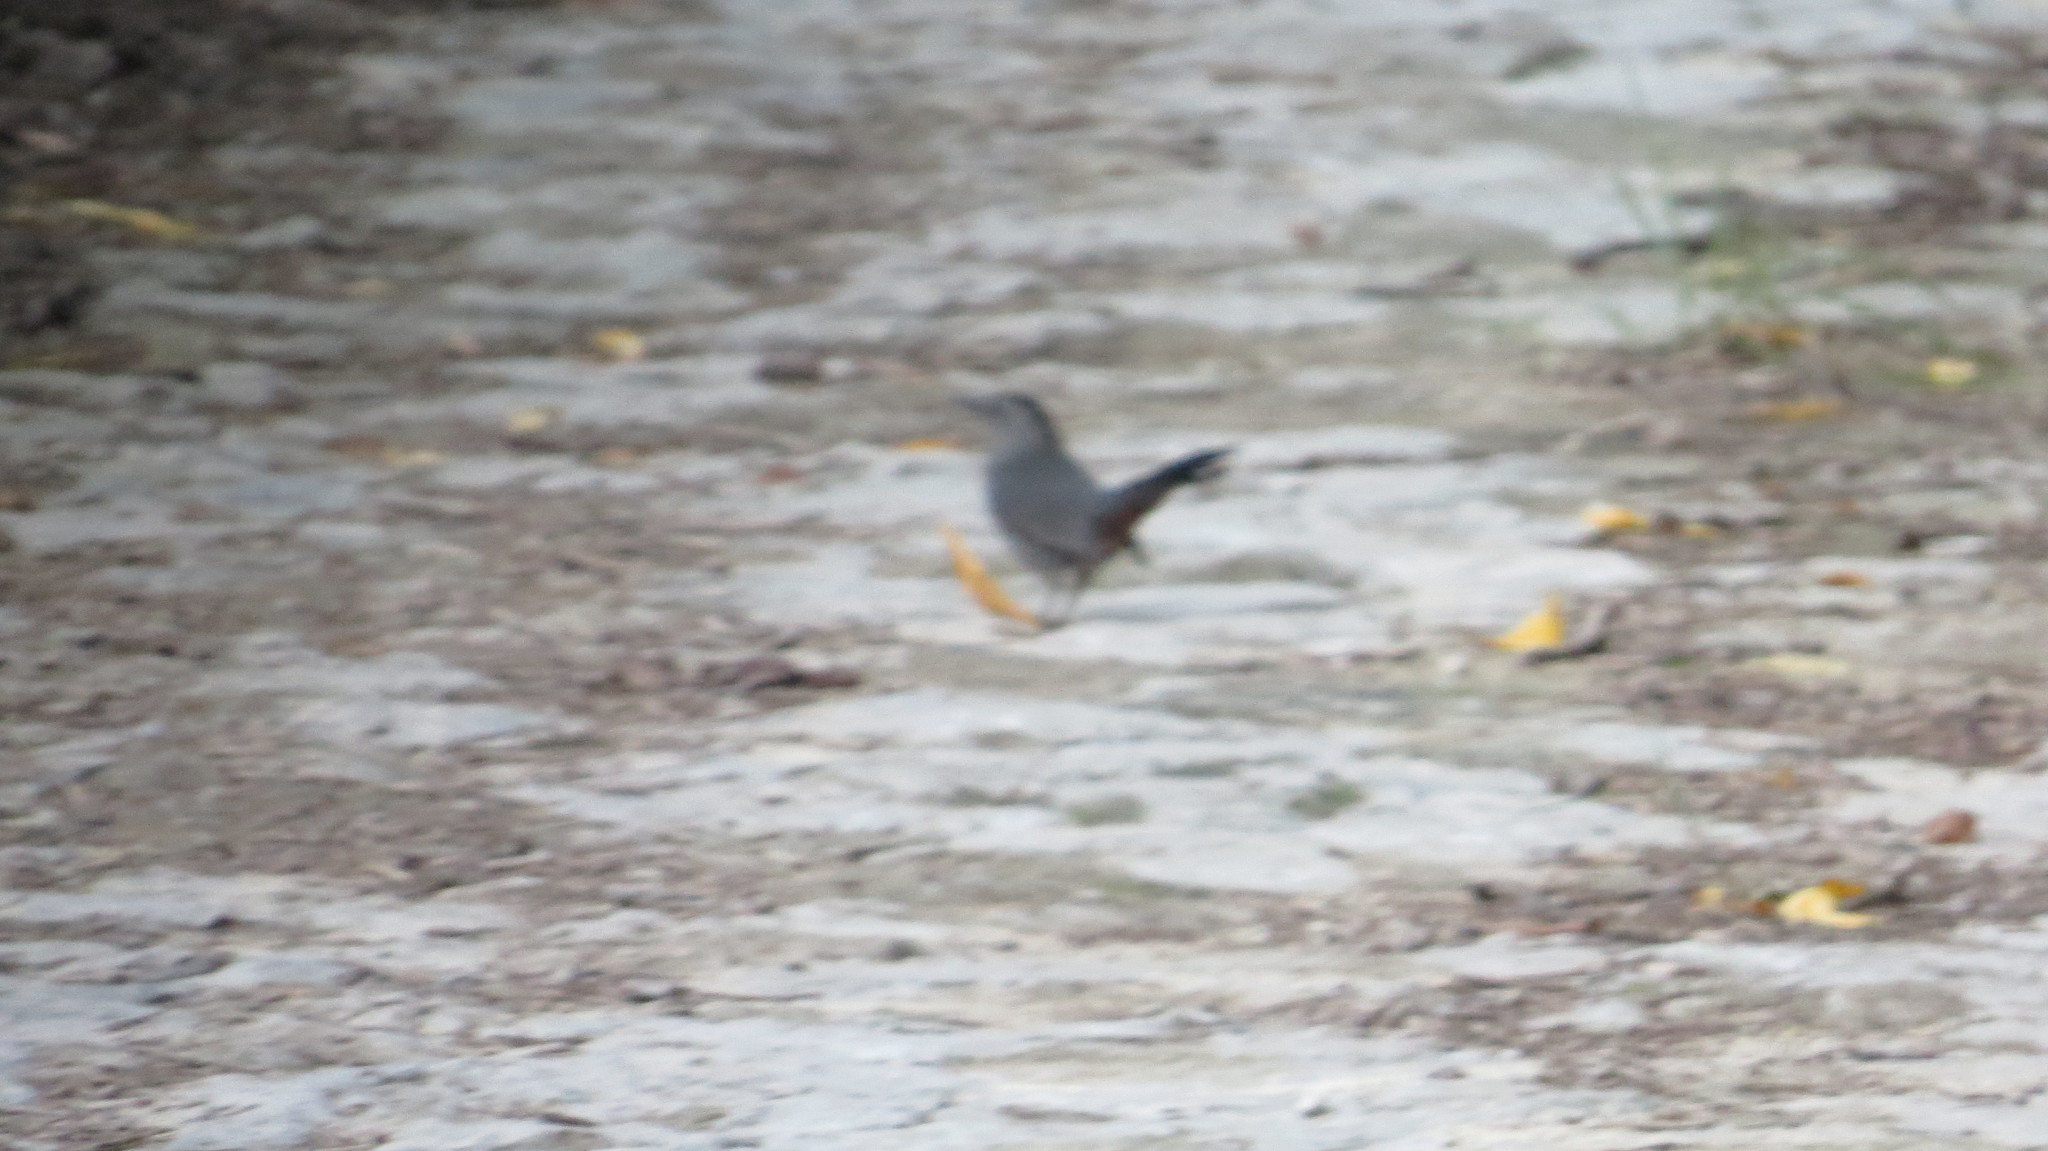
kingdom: Animalia
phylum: Chordata
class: Aves
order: Passeriformes
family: Mimidae
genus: Dumetella
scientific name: Dumetella carolinensis
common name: Gray catbird
